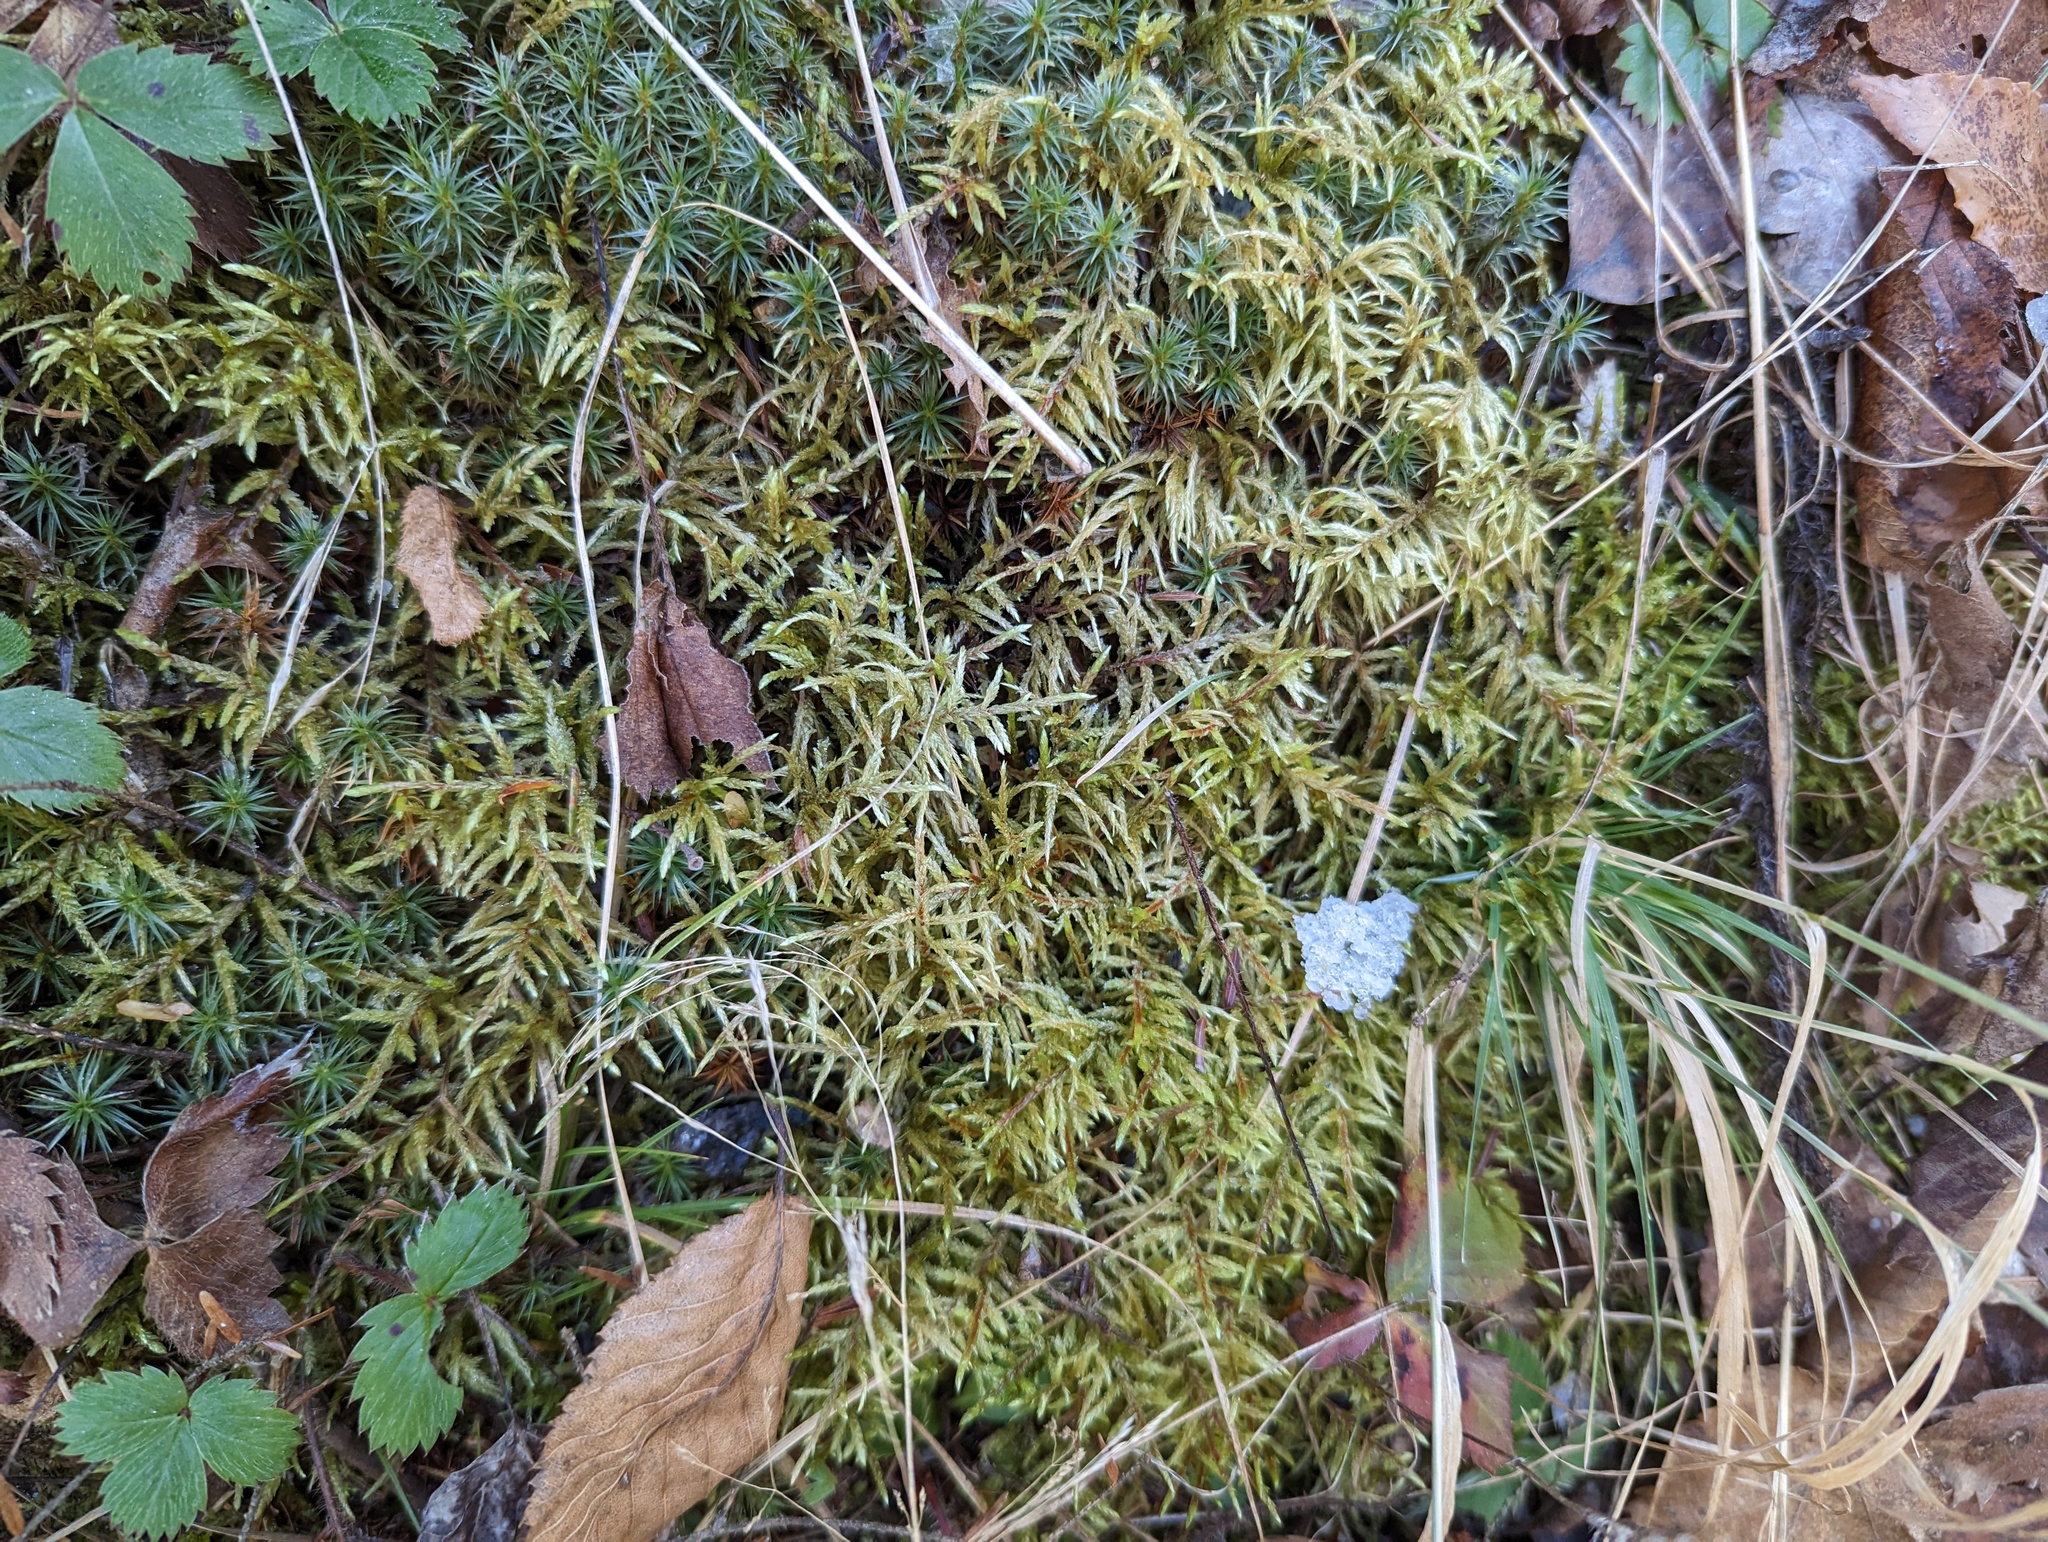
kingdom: Plantae
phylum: Bryophyta
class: Bryopsida
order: Hypnales
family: Hylocomiaceae
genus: Pleurozium
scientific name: Pleurozium schreberi
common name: Red-stemmed feather moss
